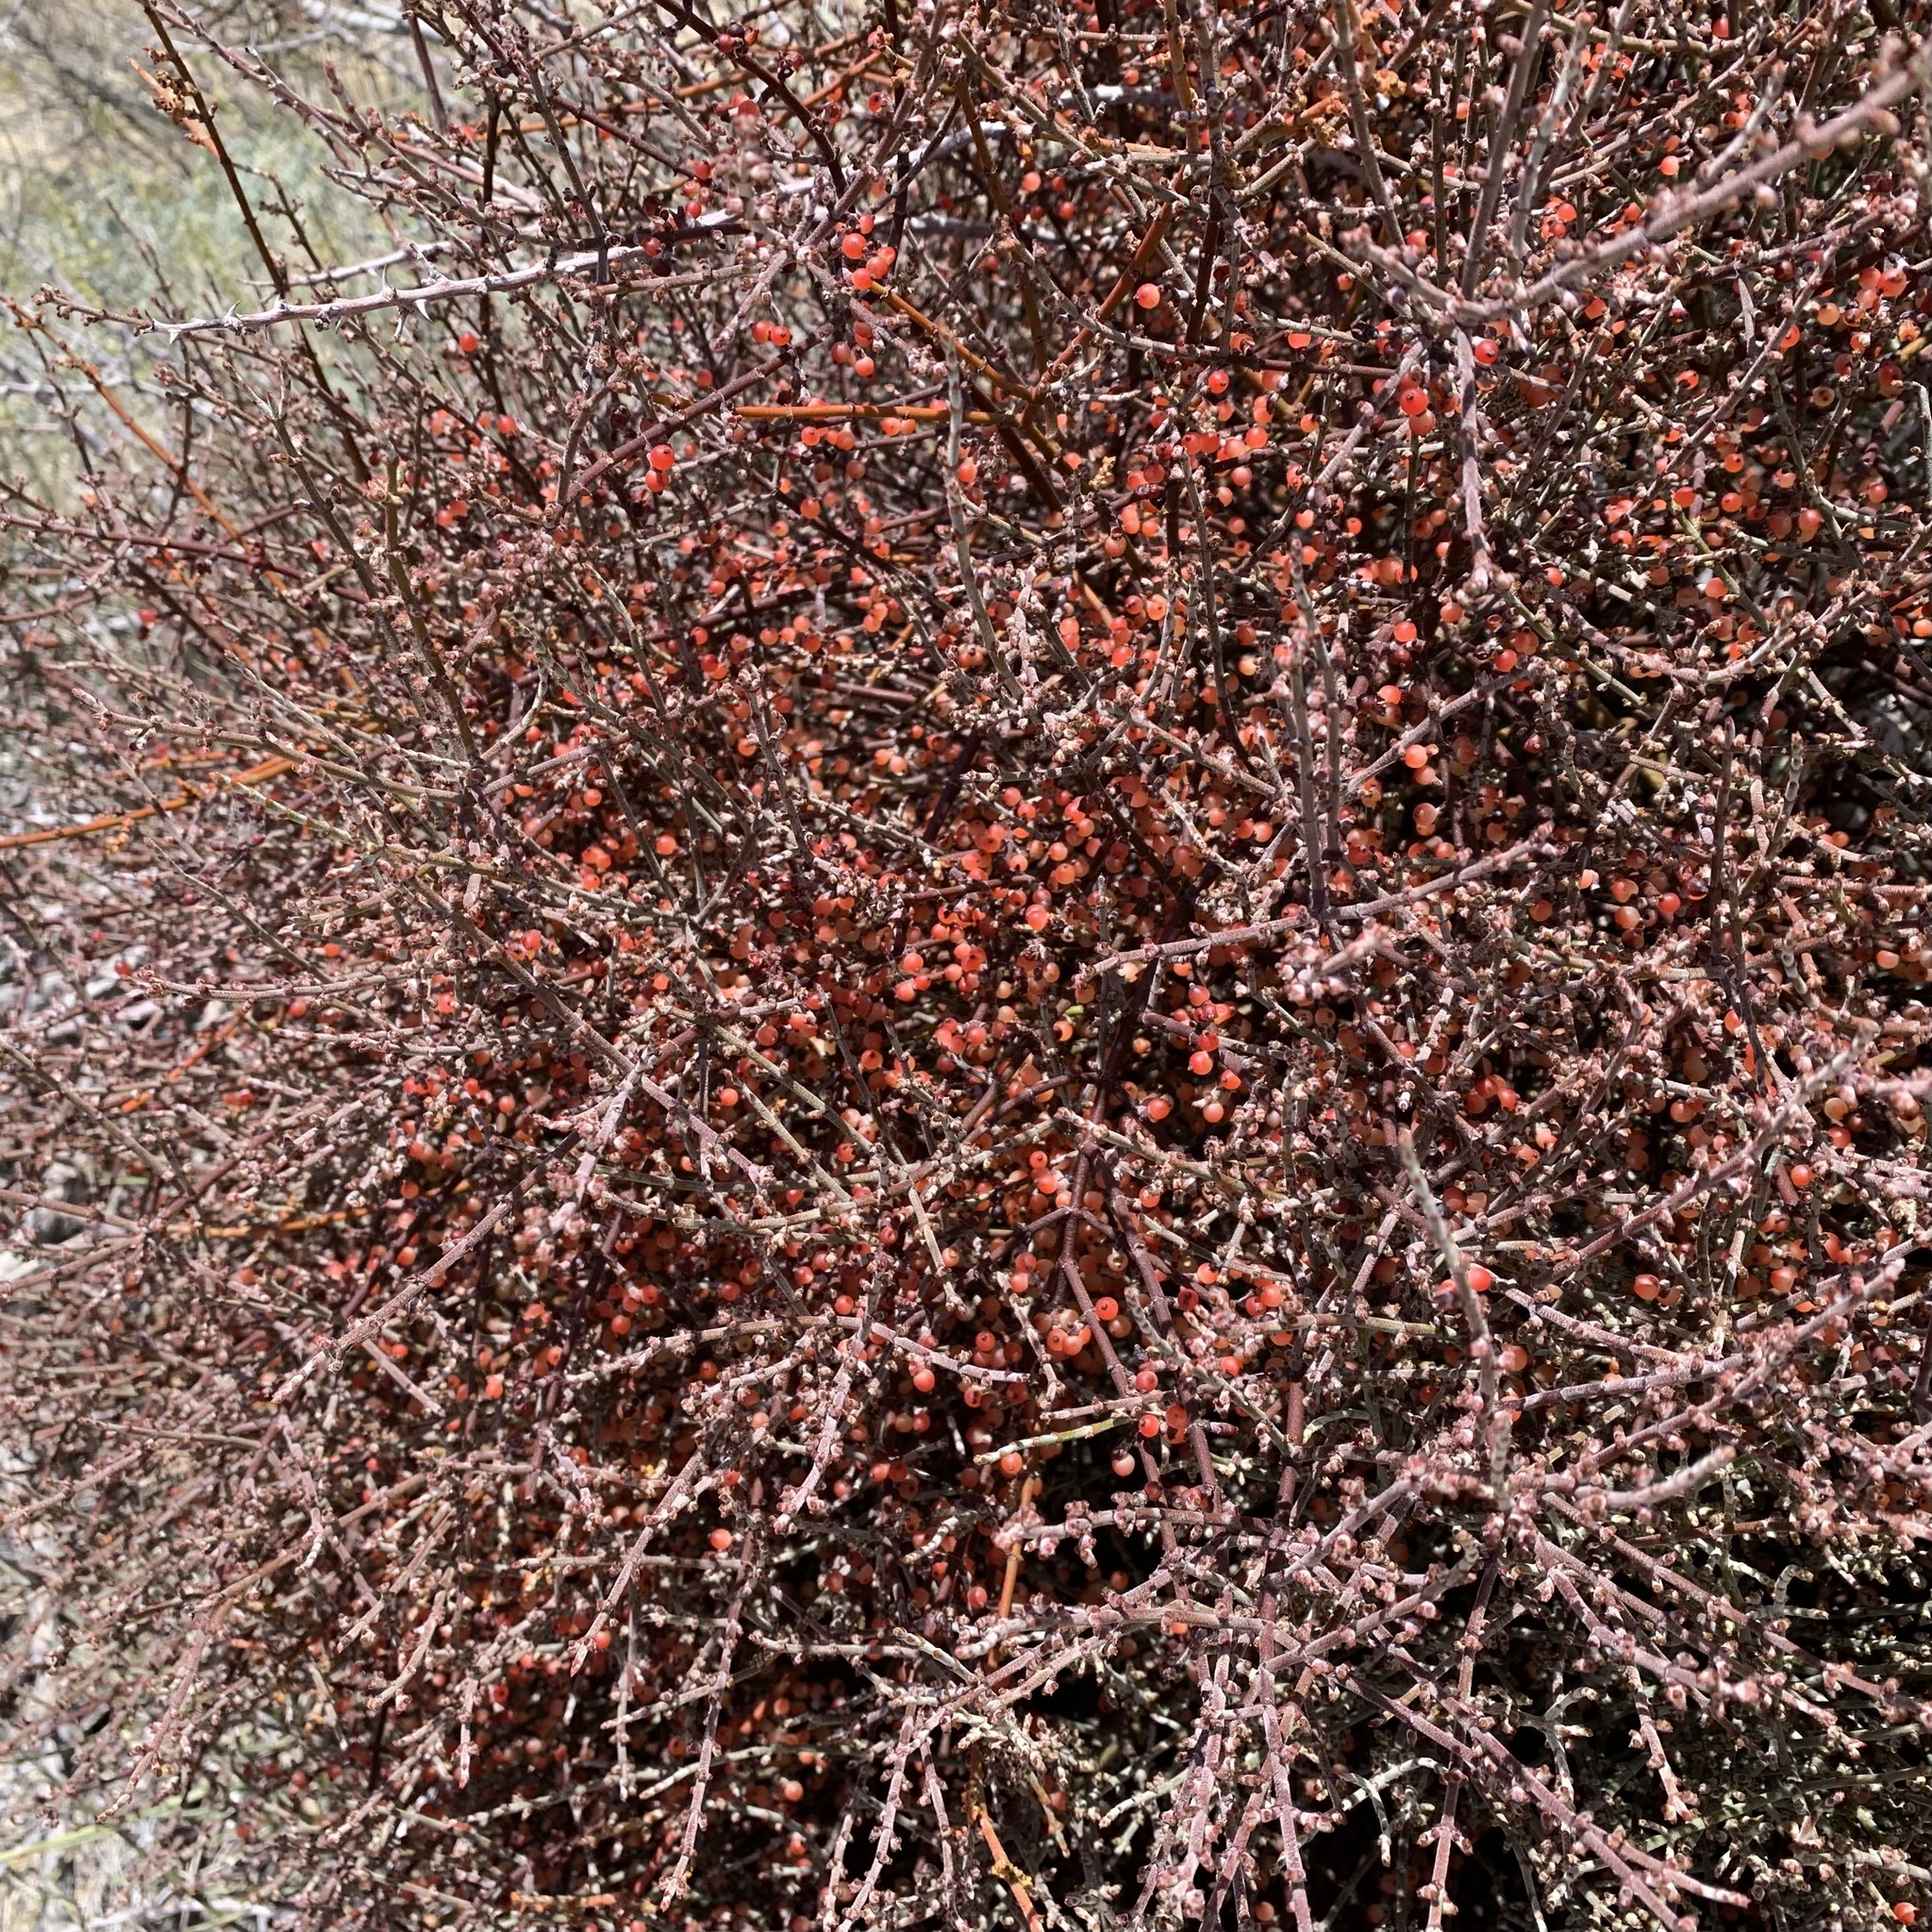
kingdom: Plantae
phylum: Tracheophyta
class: Magnoliopsida
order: Santalales
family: Viscaceae
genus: Phoradendron
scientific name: Phoradendron californicum
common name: Acacia mistletoe
